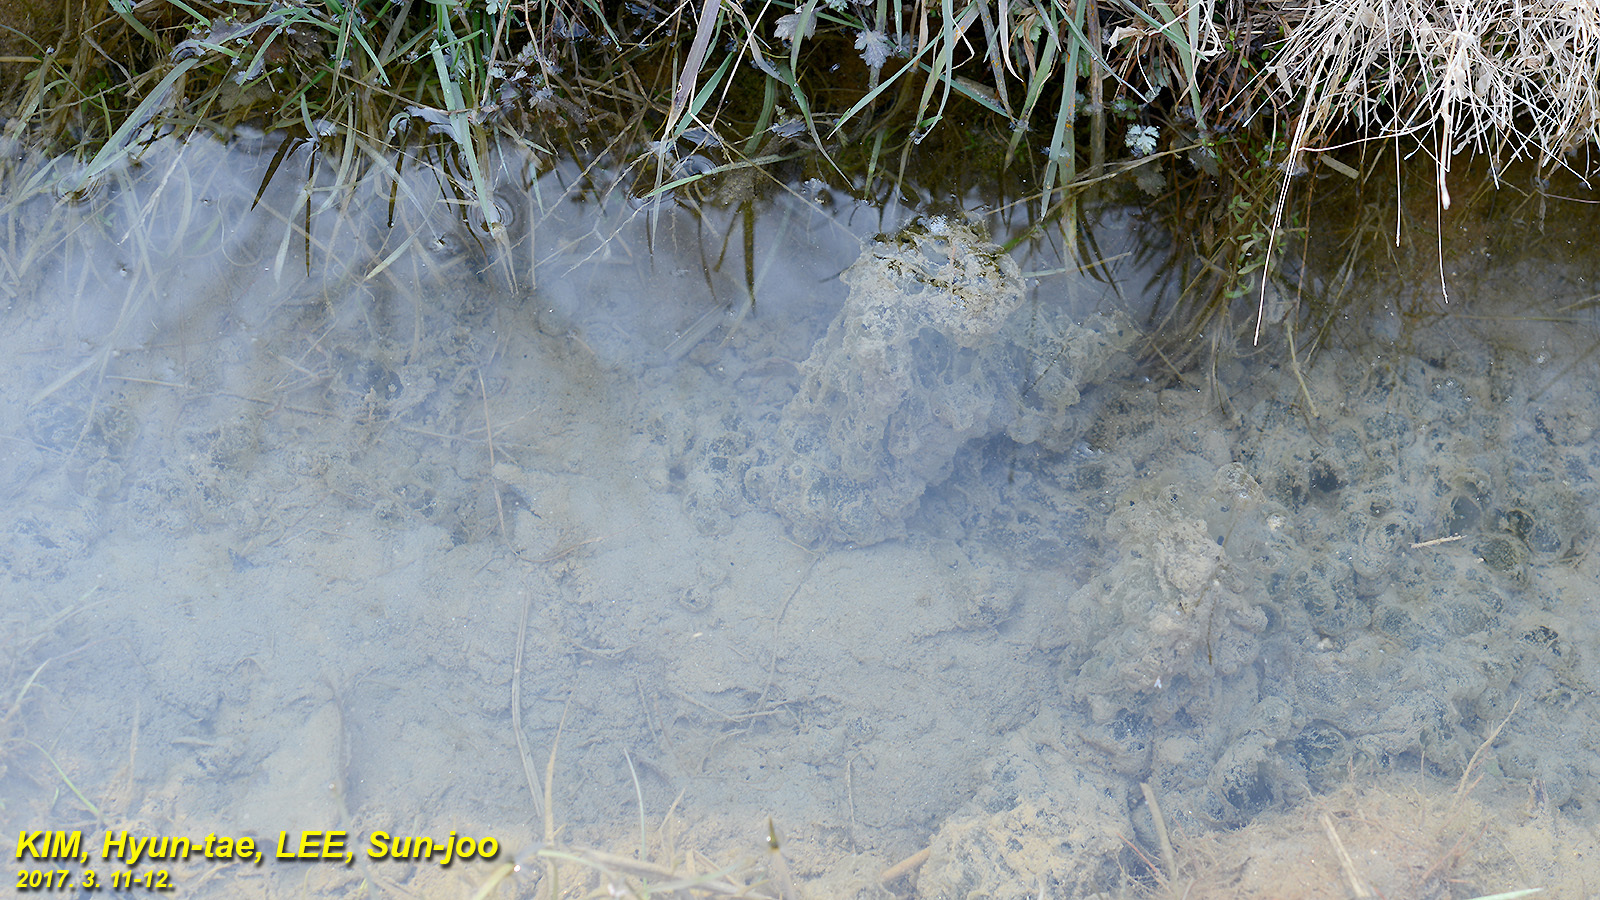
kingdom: Animalia
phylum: Chordata
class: Amphibia
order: Anura
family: Ranidae
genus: Rana
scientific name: Rana uenoi
